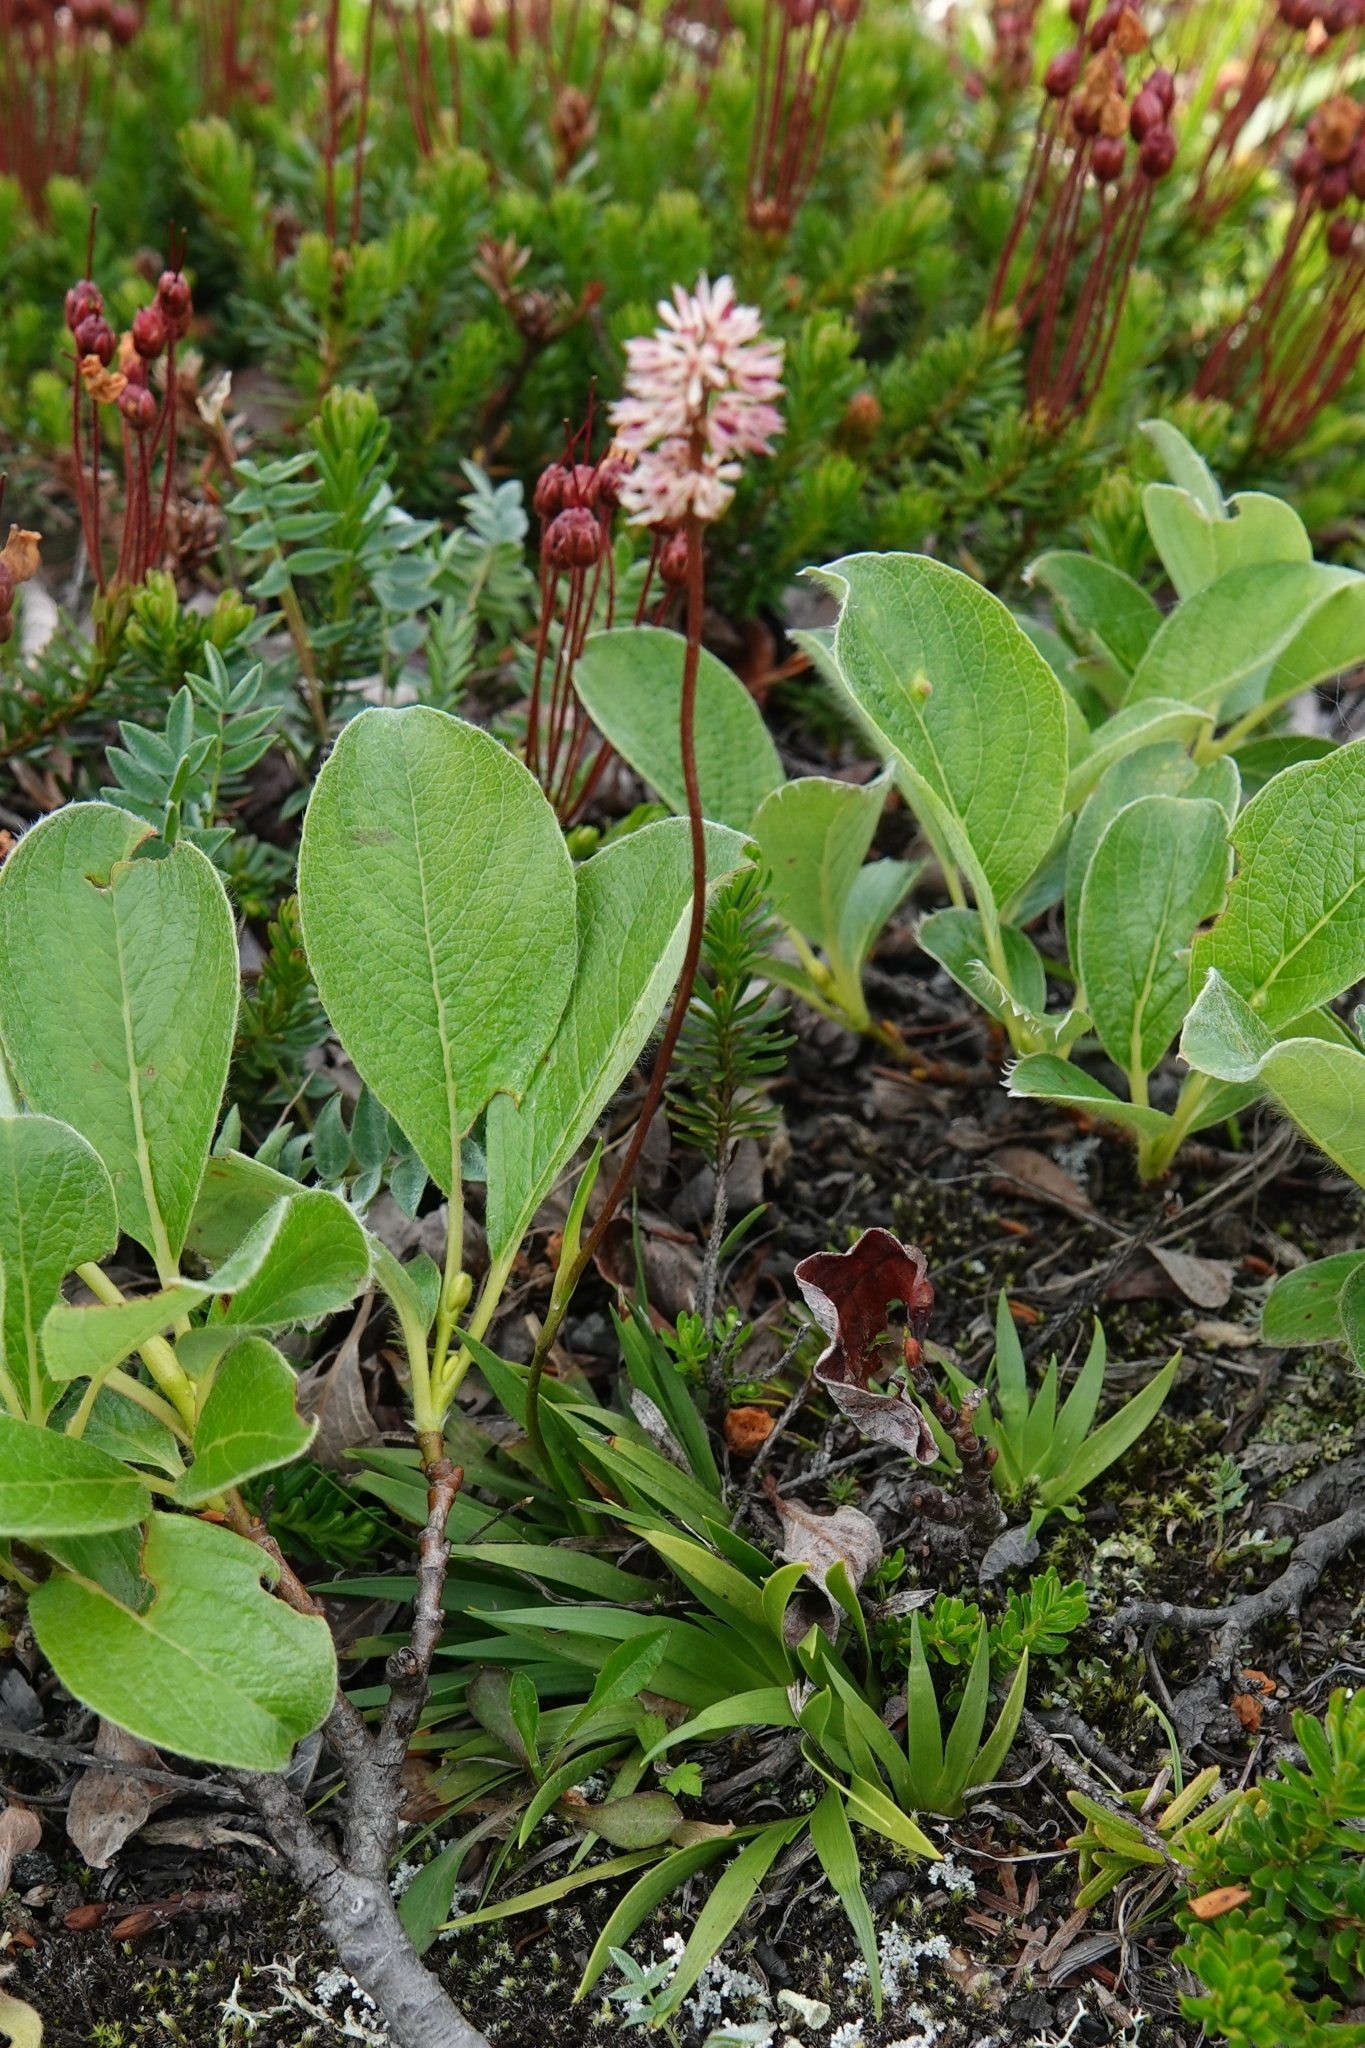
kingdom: Plantae
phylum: Tracheophyta
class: Liliopsida
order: Alismatales
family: Tofieldiaceae
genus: Tofieldia
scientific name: Tofieldia coccinea
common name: Northern false asphodel
